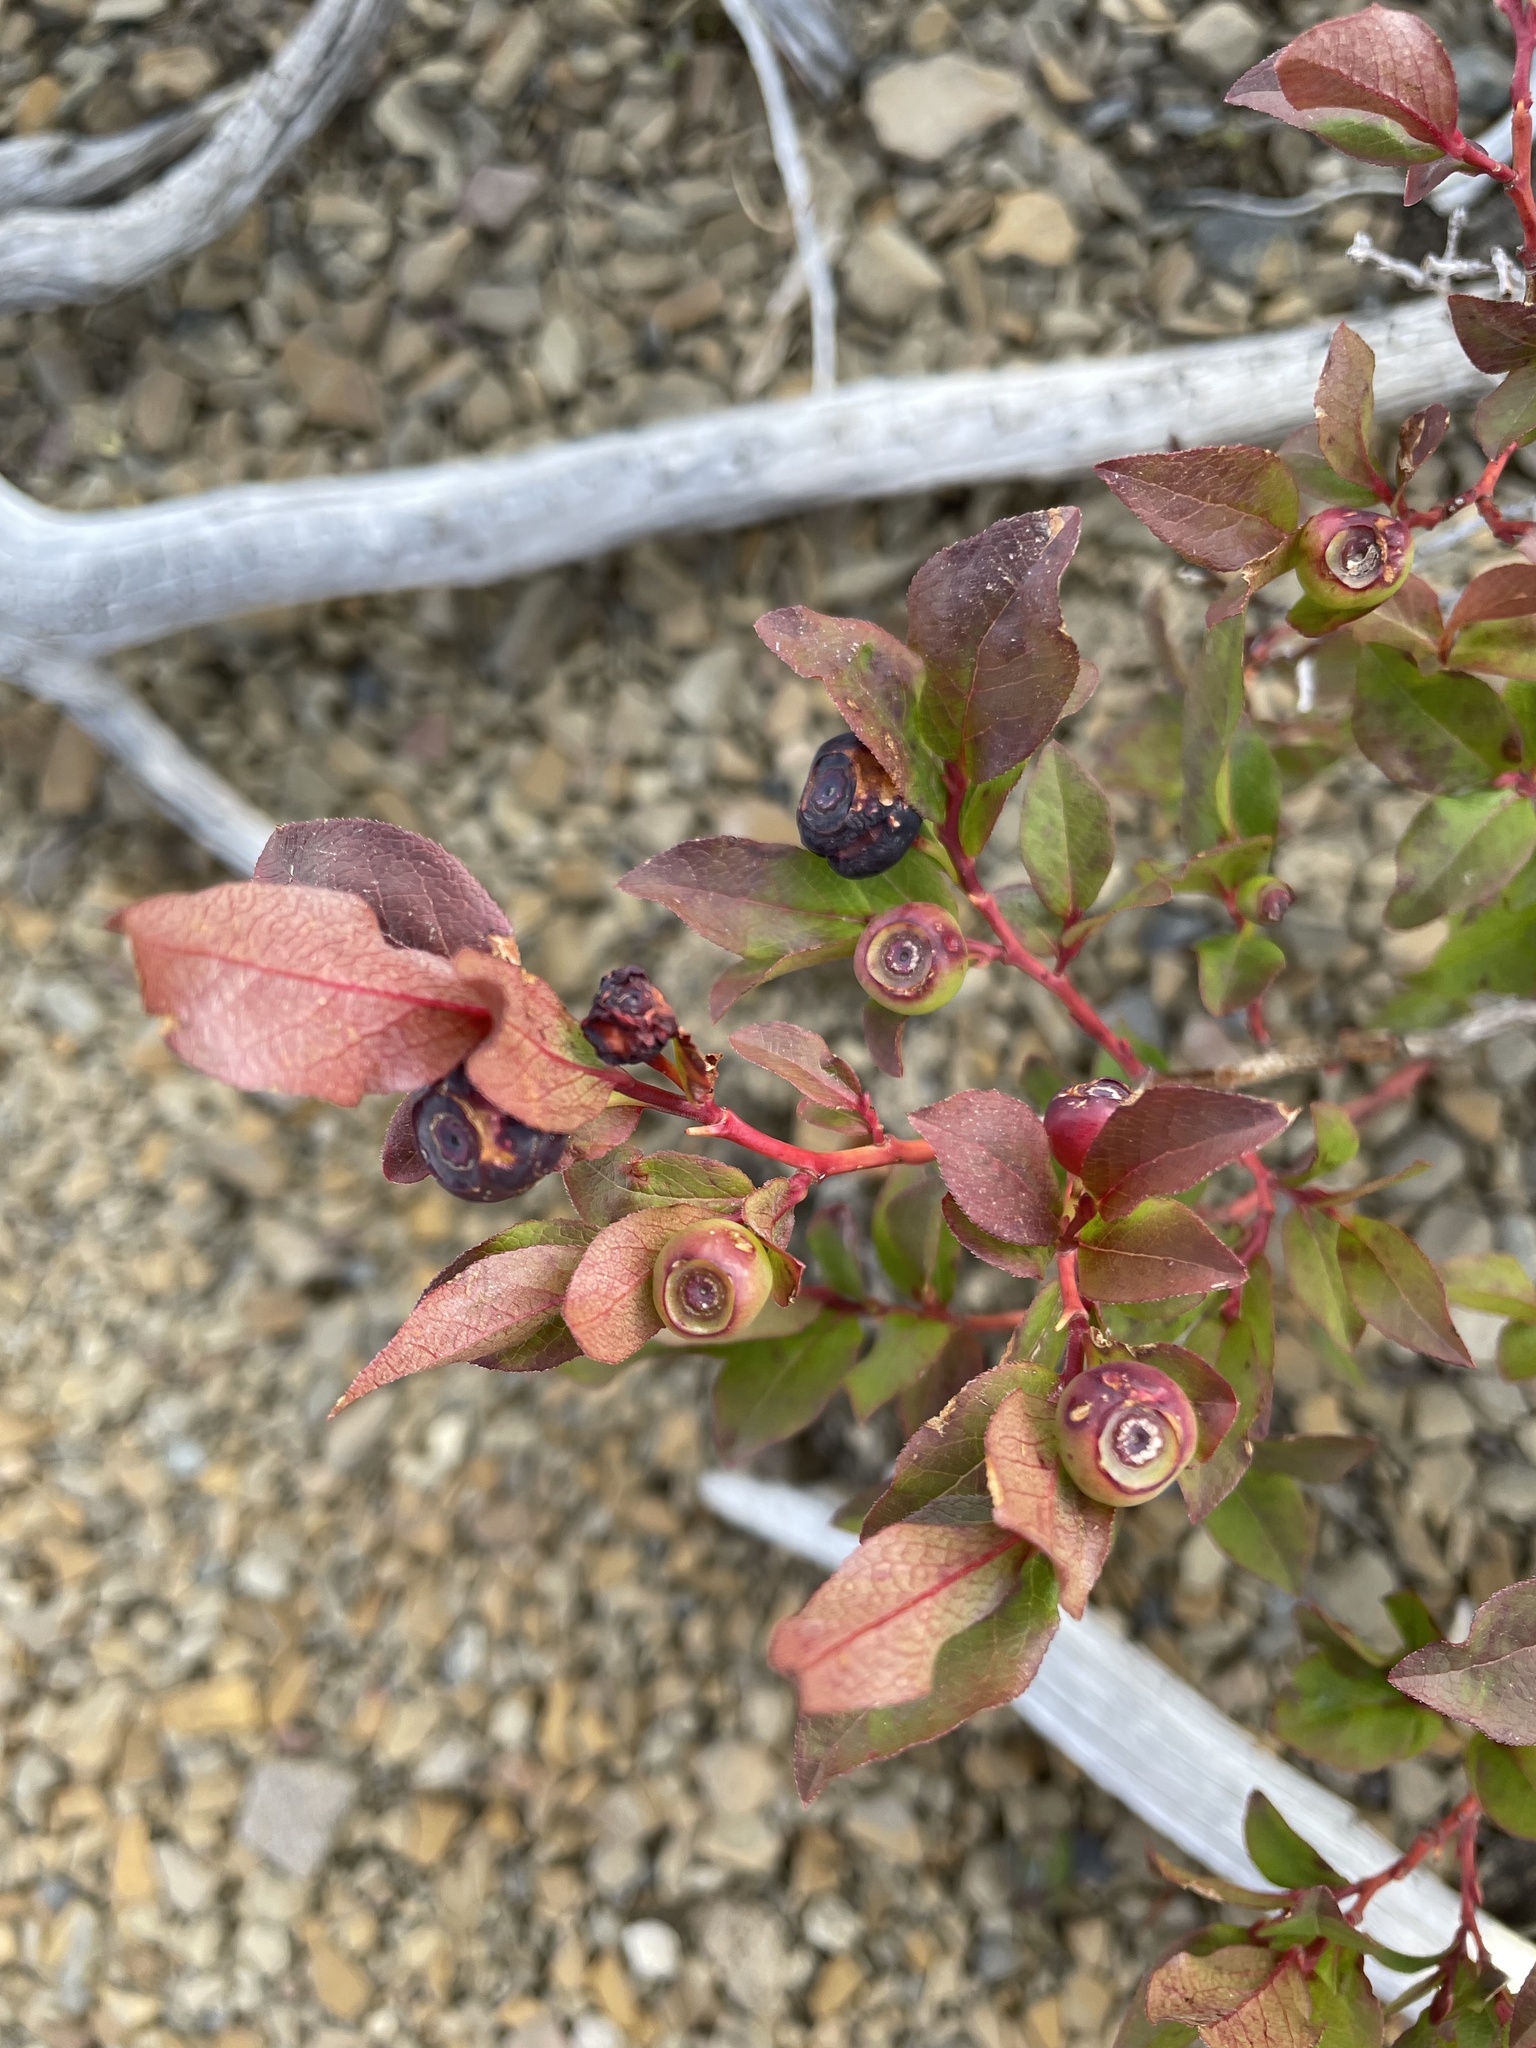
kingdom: Plantae
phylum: Tracheophyta
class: Magnoliopsida
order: Ericales
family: Ericaceae
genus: Vaccinium
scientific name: Vaccinium membranaceum
